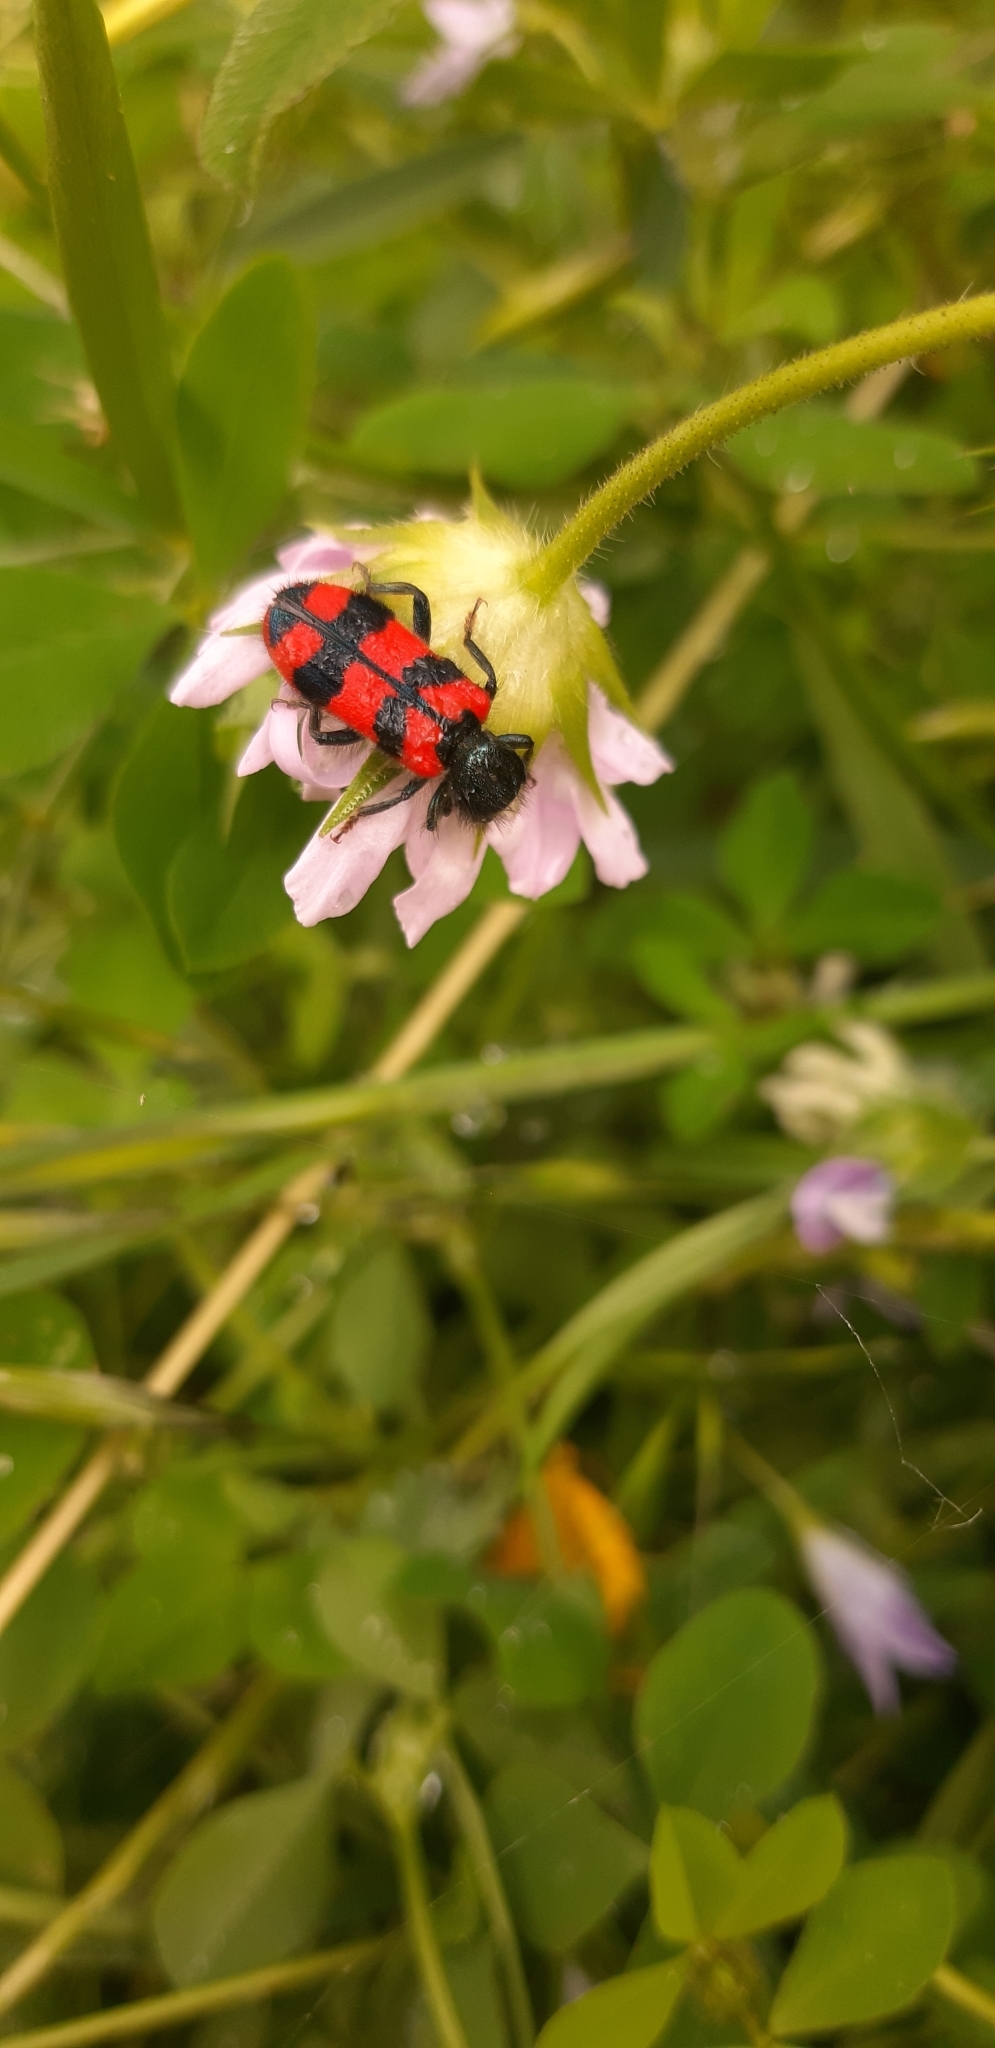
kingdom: Animalia
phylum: Arthropoda
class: Insecta
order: Coleoptera
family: Cleridae
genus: Trichodes
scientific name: Trichodes alvearius
